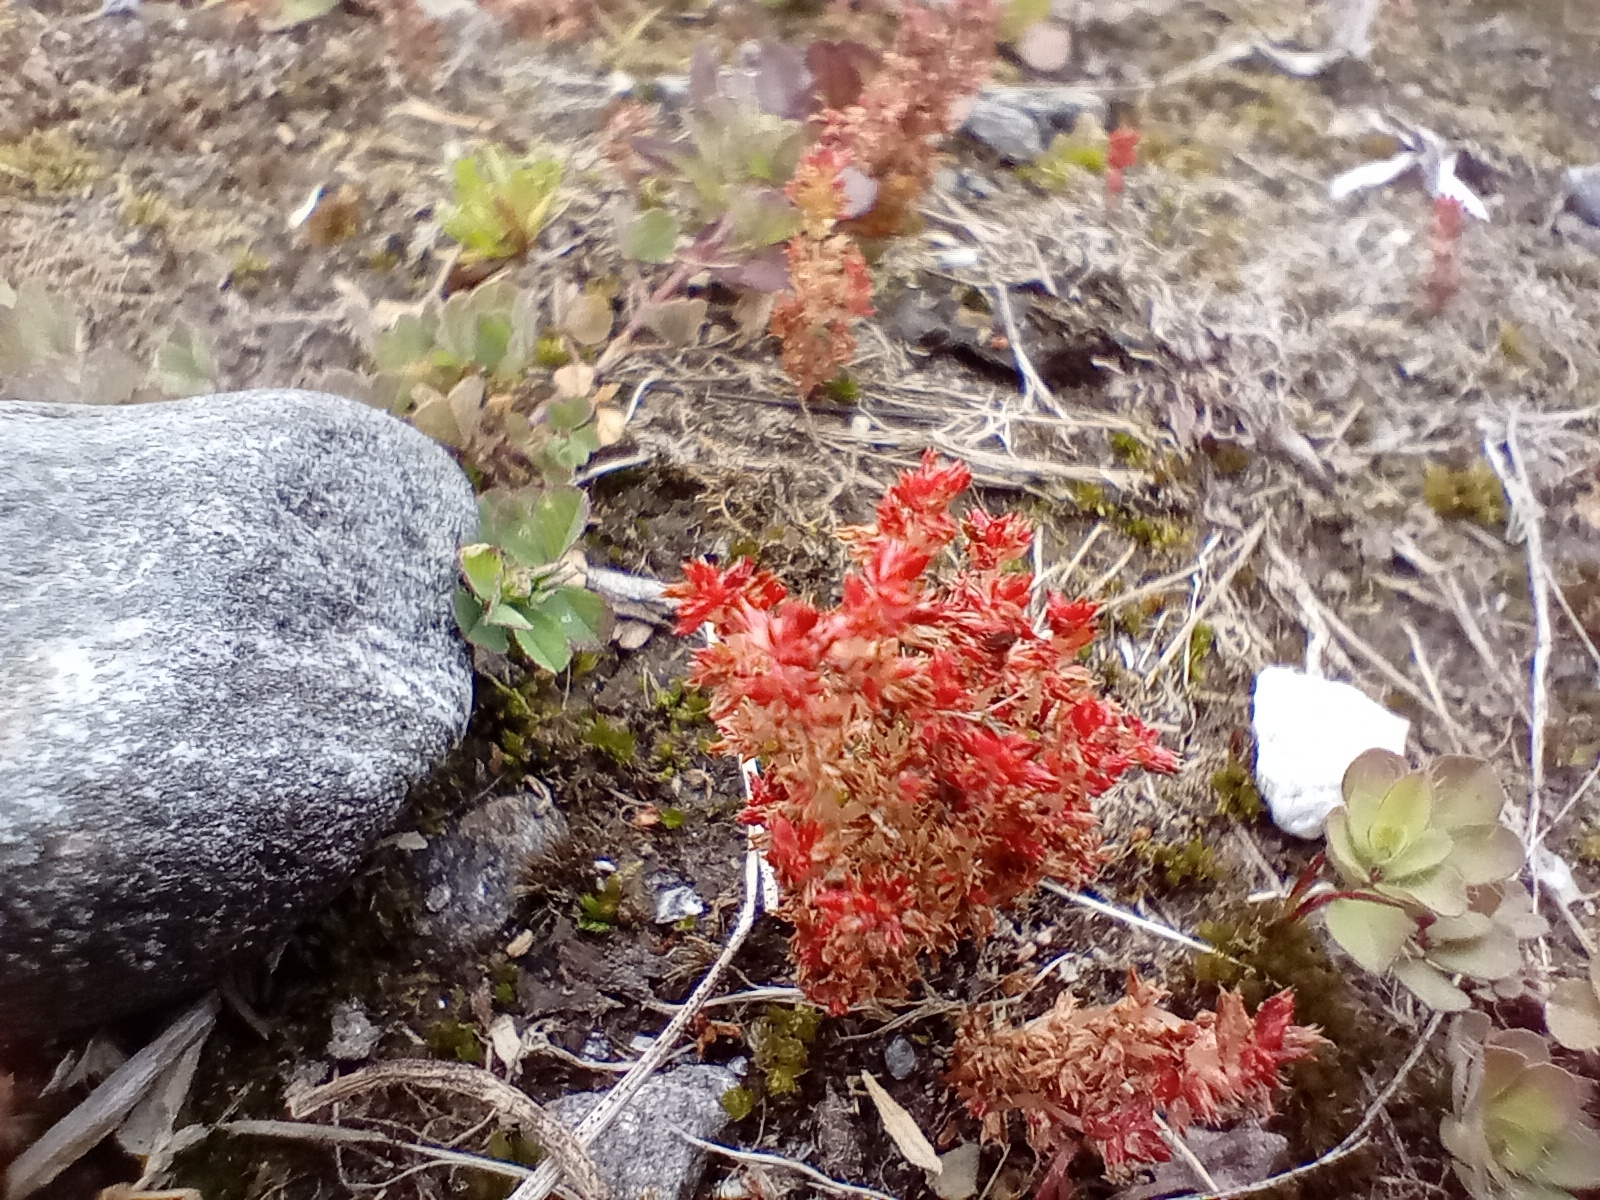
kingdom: Plantae
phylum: Tracheophyta
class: Magnoliopsida
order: Saxifragales
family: Crassulaceae
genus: Crassula
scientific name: Crassula alata
